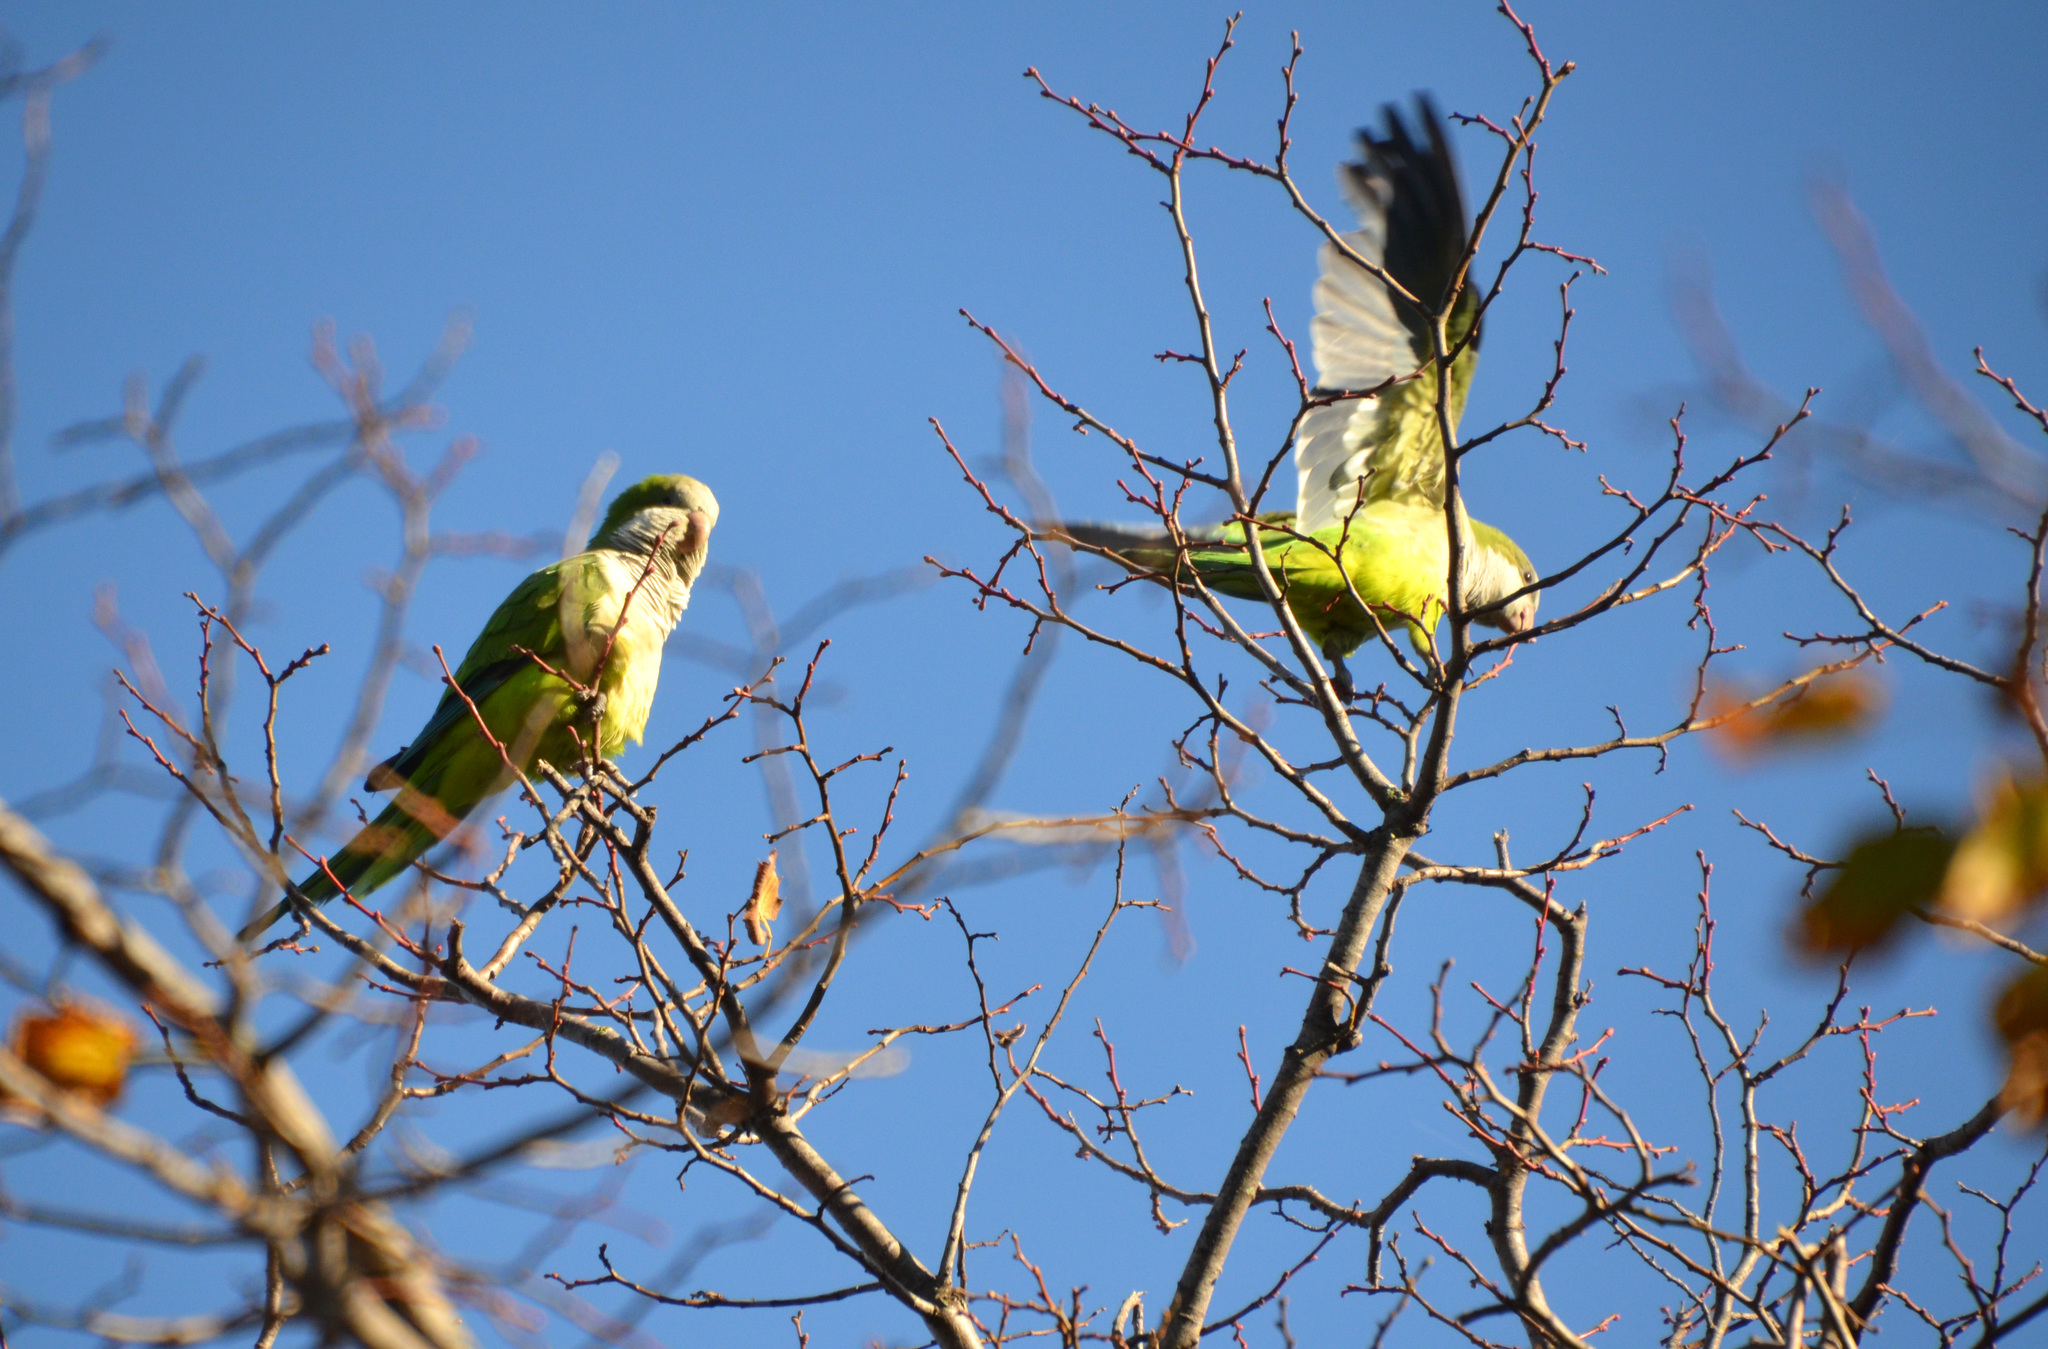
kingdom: Animalia
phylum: Chordata
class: Aves
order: Psittaciformes
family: Psittacidae
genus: Myiopsitta
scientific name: Myiopsitta monachus
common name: Monk parakeet
